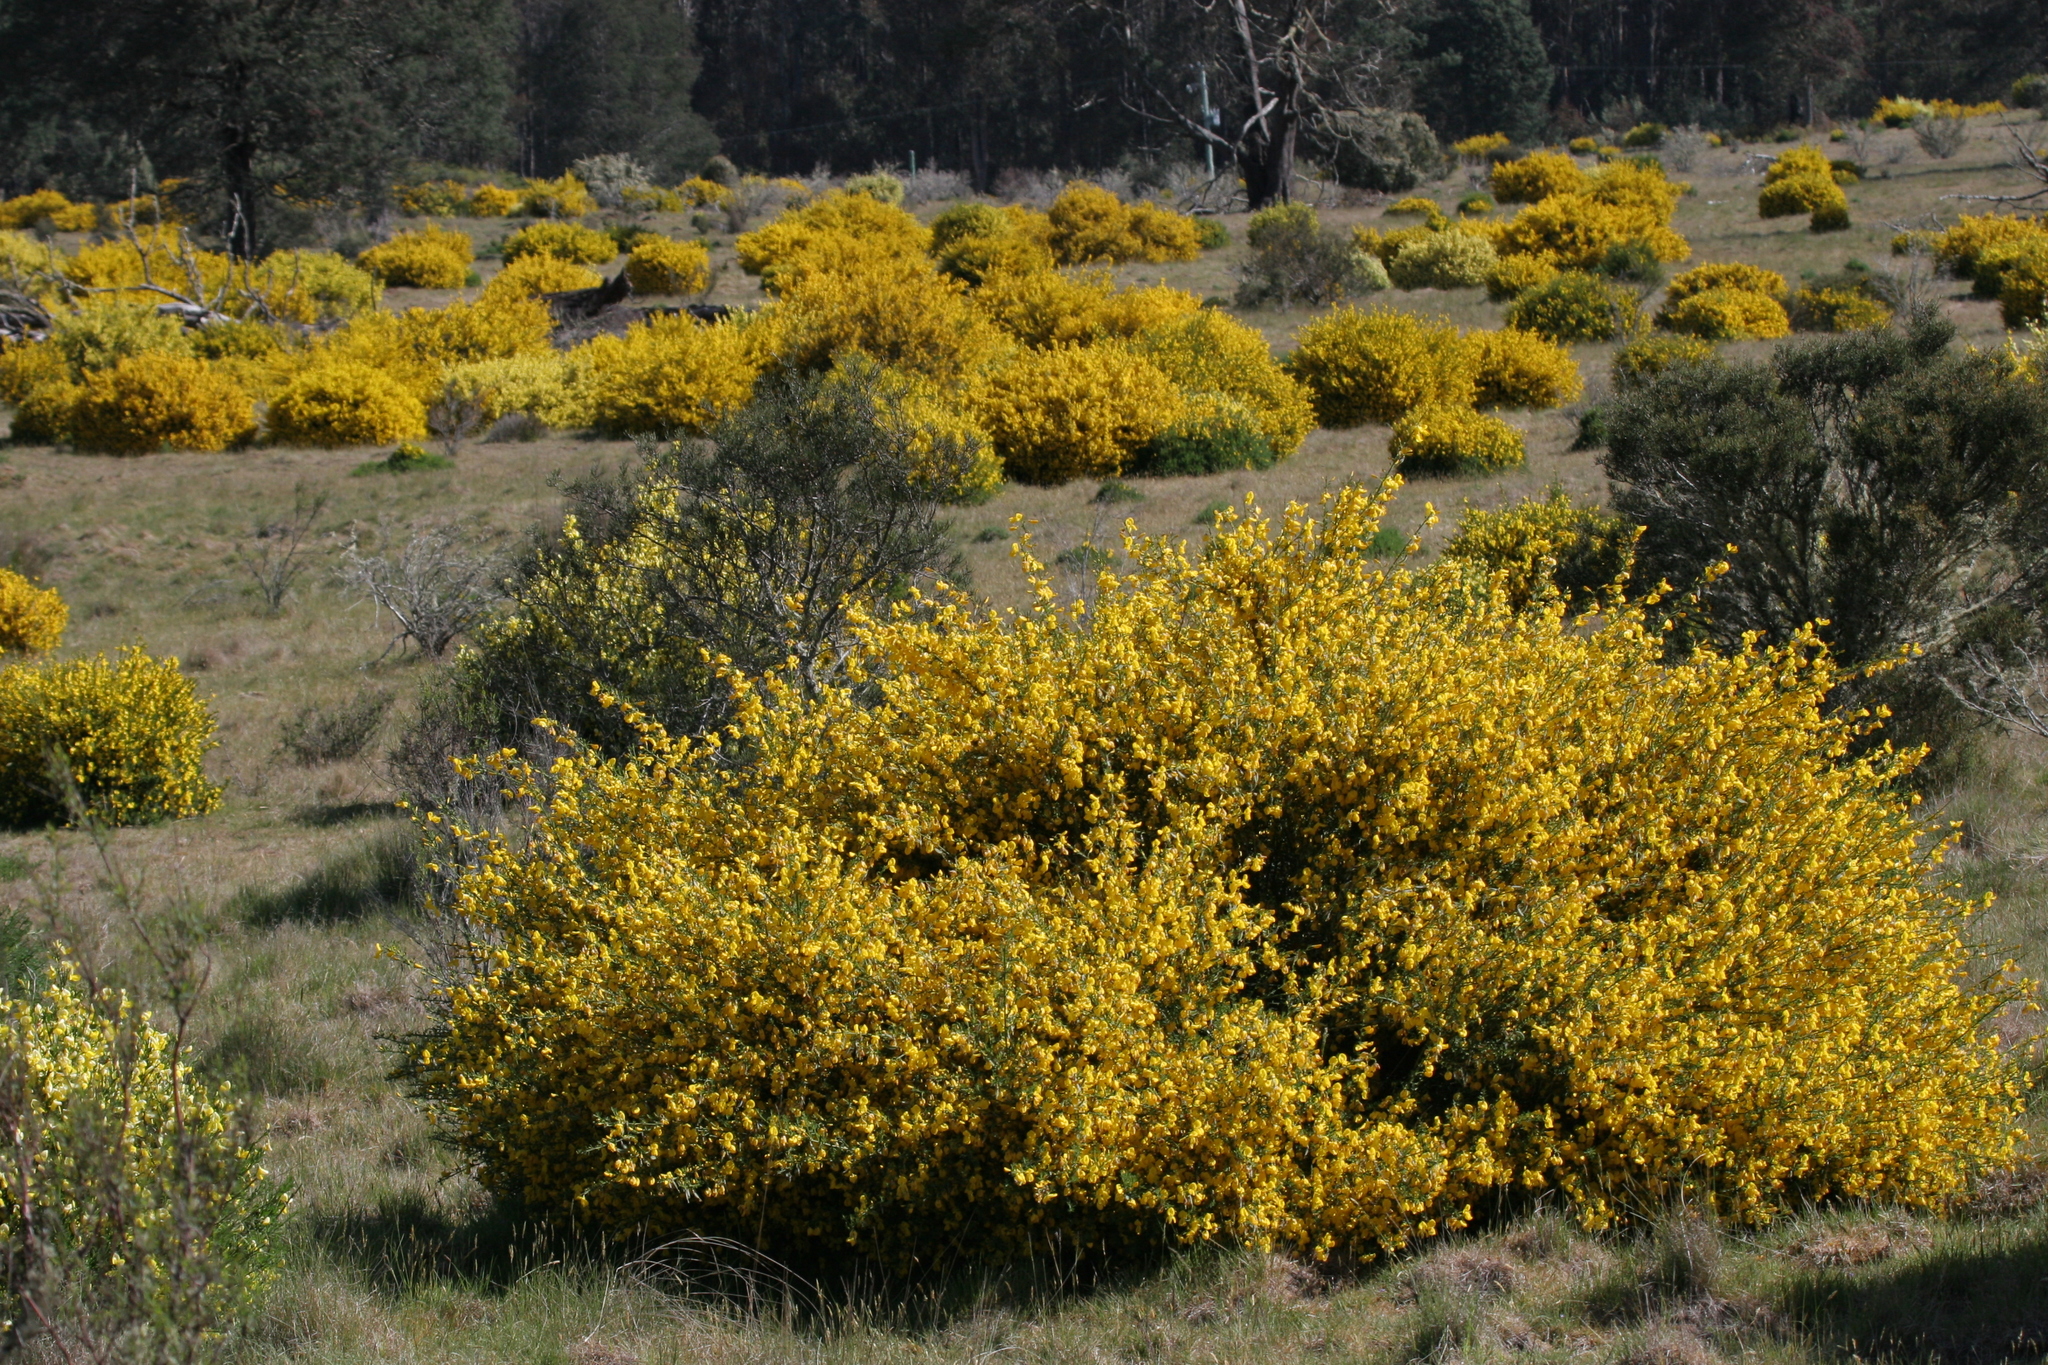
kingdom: Plantae
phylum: Tracheophyta
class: Magnoliopsida
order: Fabales
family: Fabaceae
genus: Cytisus
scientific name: Cytisus scoparius
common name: Scotch broom
